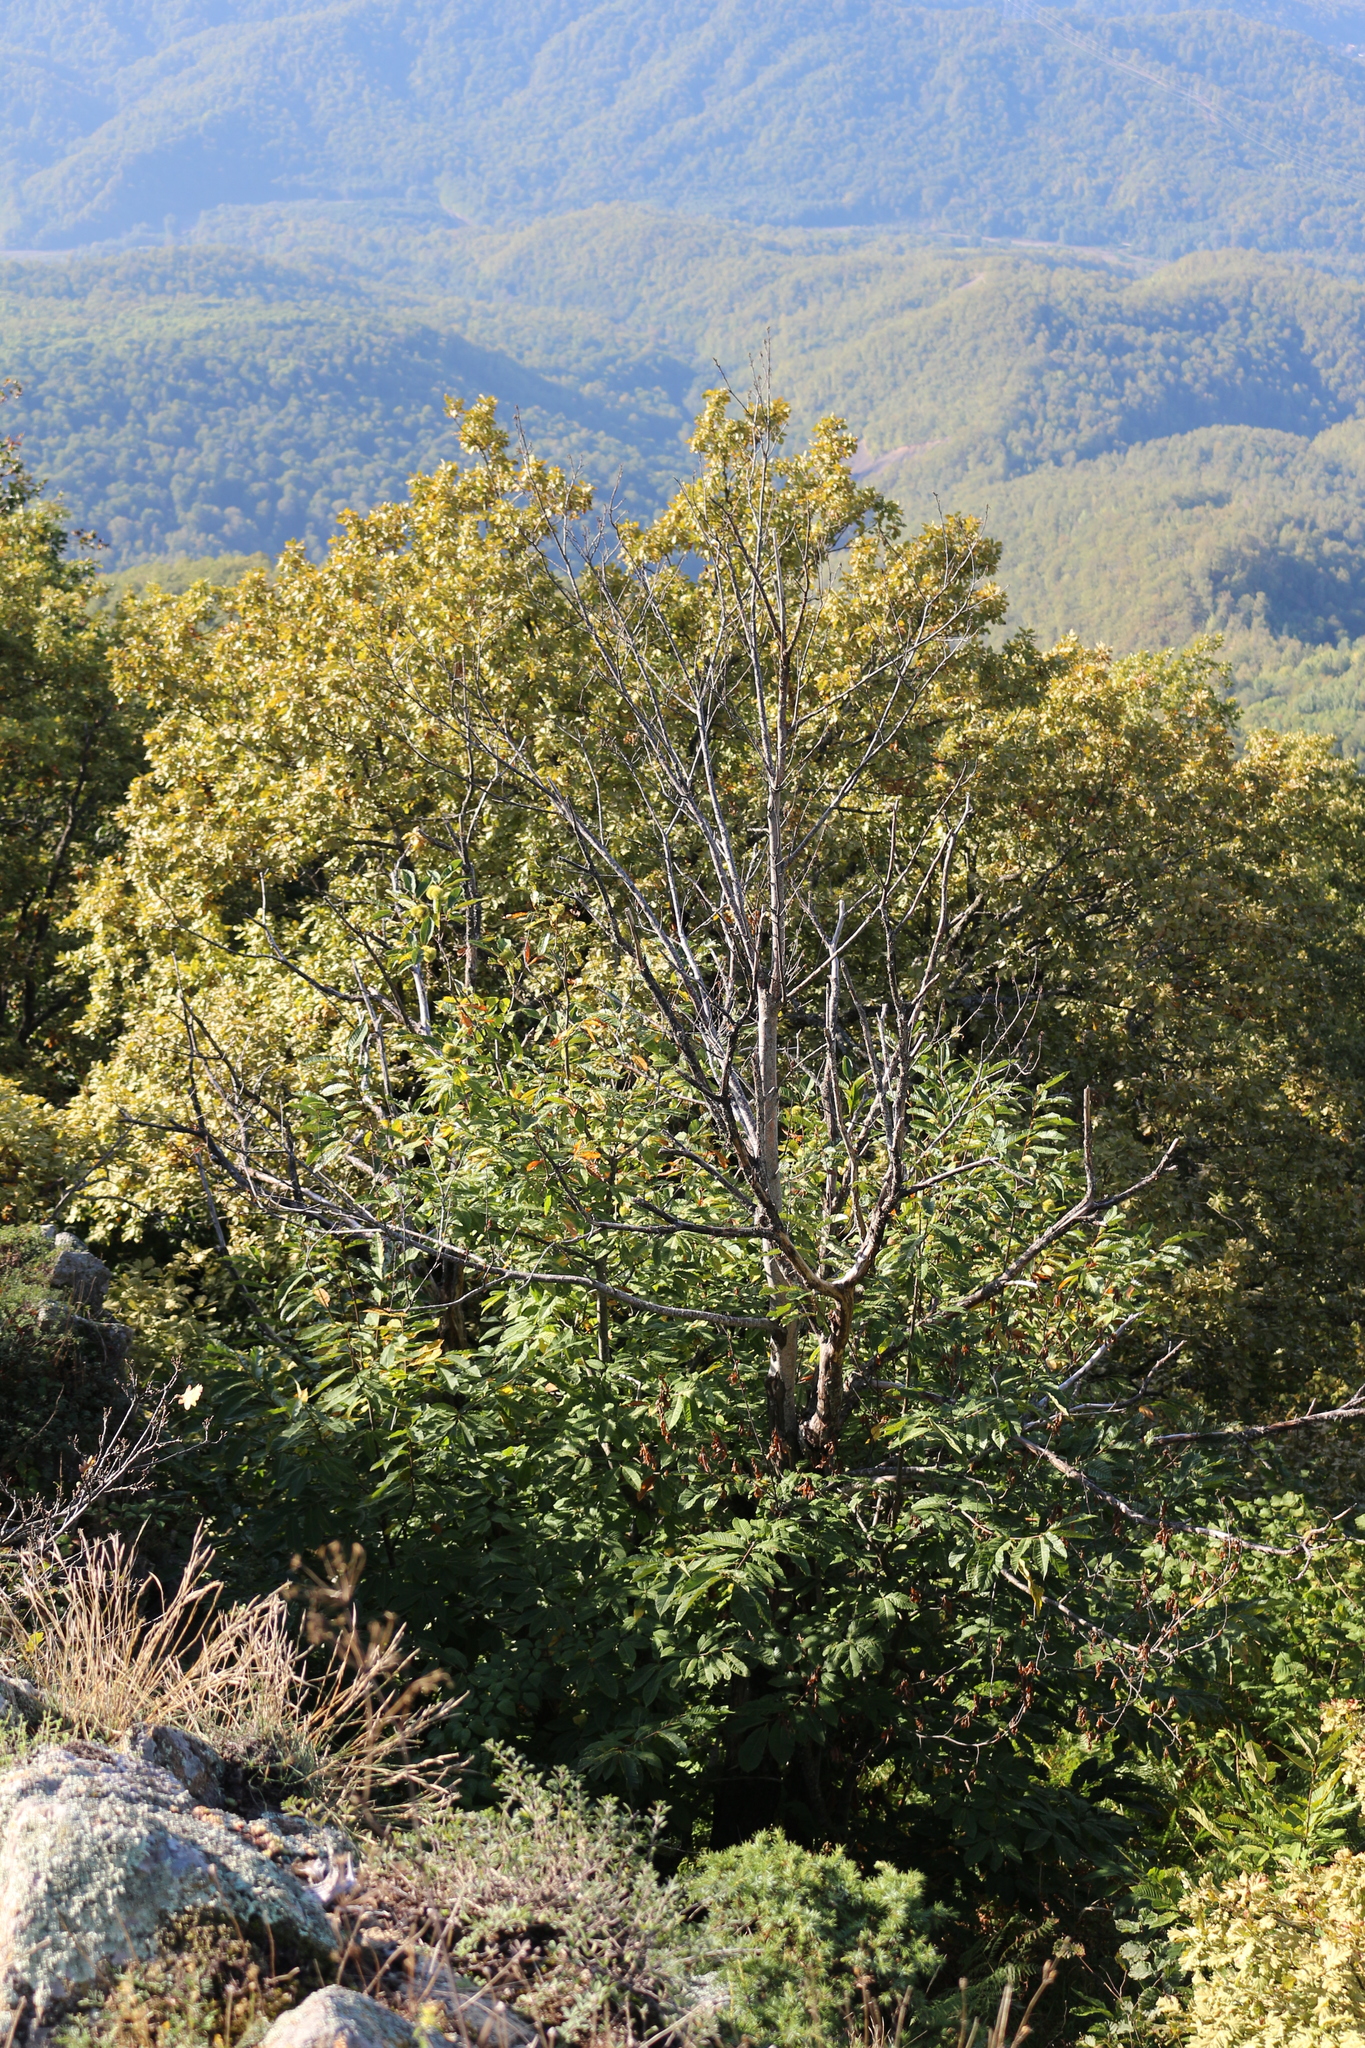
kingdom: Plantae
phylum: Tracheophyta
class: Magnoliopsida
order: Fagales
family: Fagaceae
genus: Castanea
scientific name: Castanea sativa
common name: Sweet chestnut
